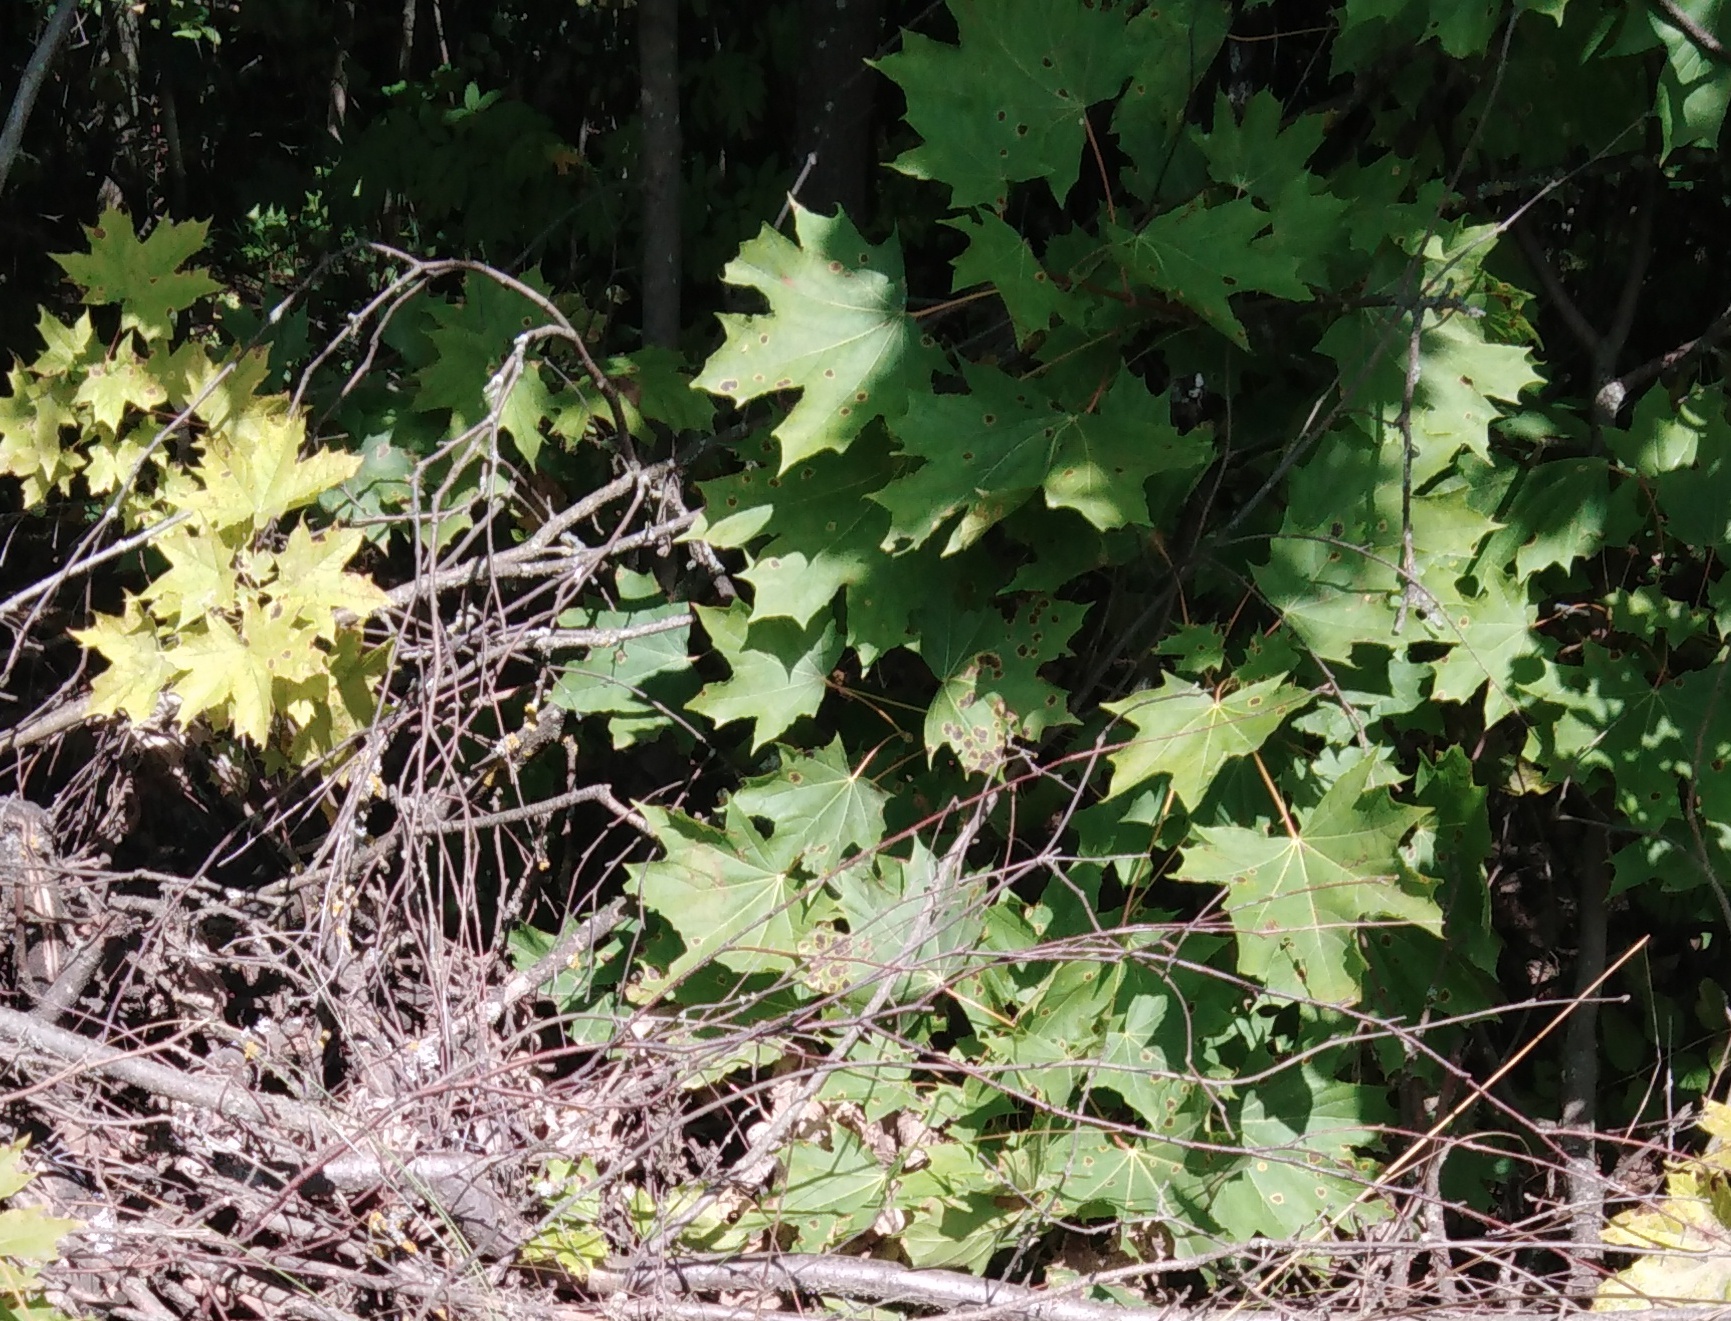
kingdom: Plantae
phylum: Tracheophyta
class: Magnoliopsida
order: Sapindales
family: Sapindaceae
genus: Acer
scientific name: Acer platanoides
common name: Norway maple
